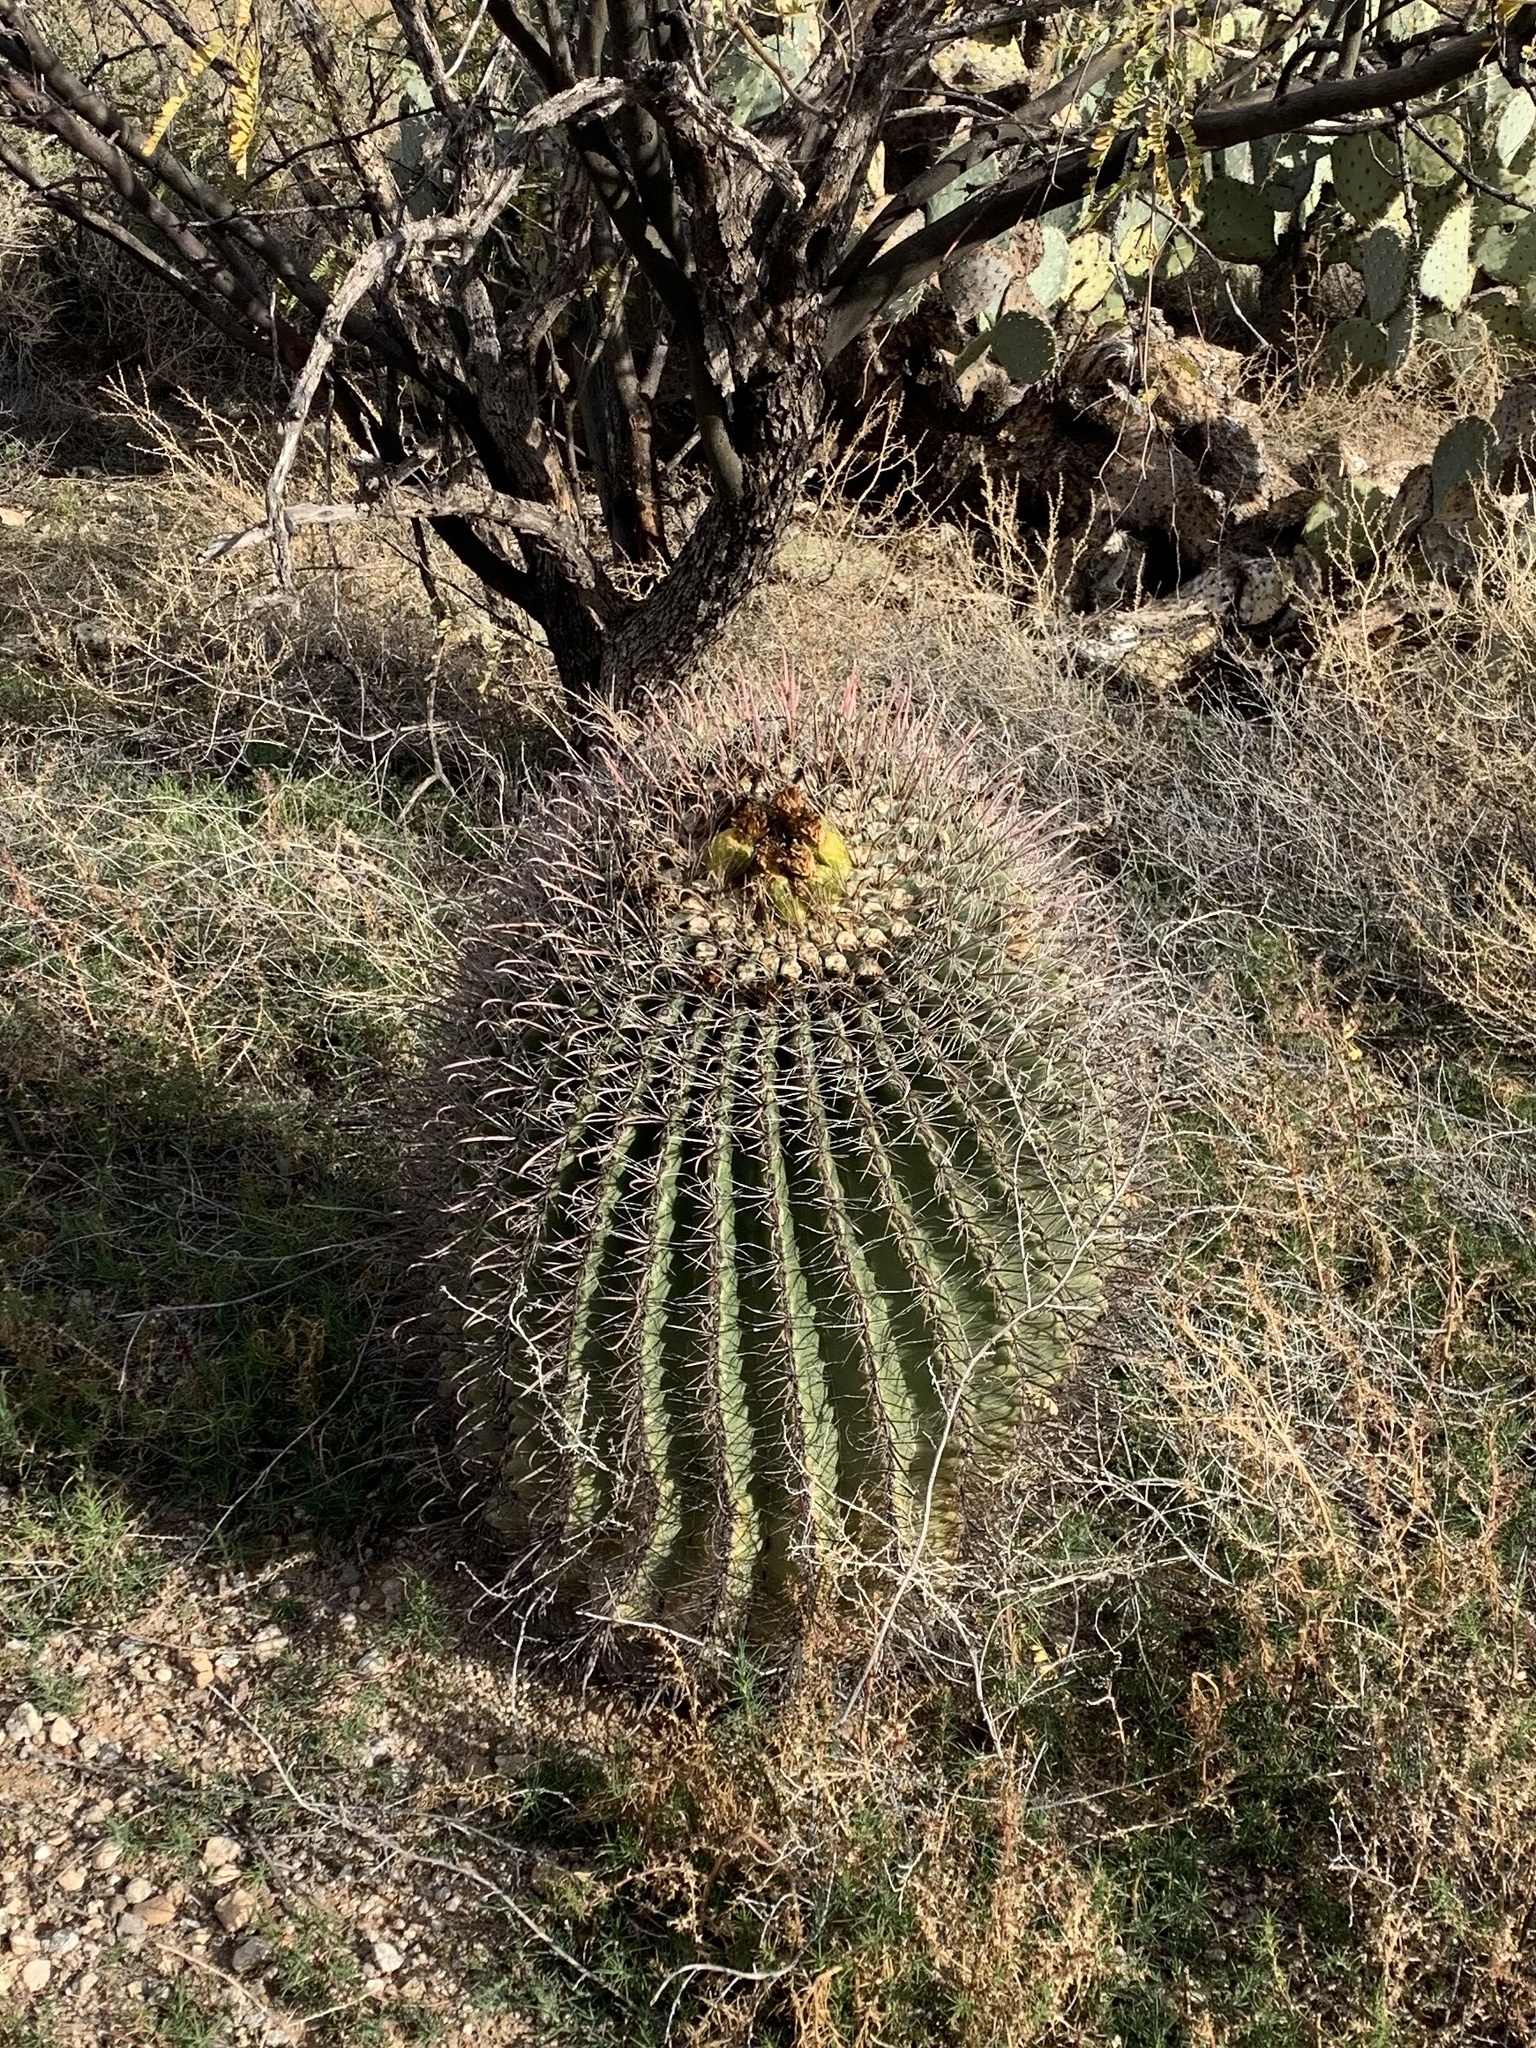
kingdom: Plantae
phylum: Tracheophyta
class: Magnoliopsida
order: Caryophyllales
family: Cactaceae
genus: Ferocactus
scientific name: Ferocactus wislizeni
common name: Candy barrel cactus
